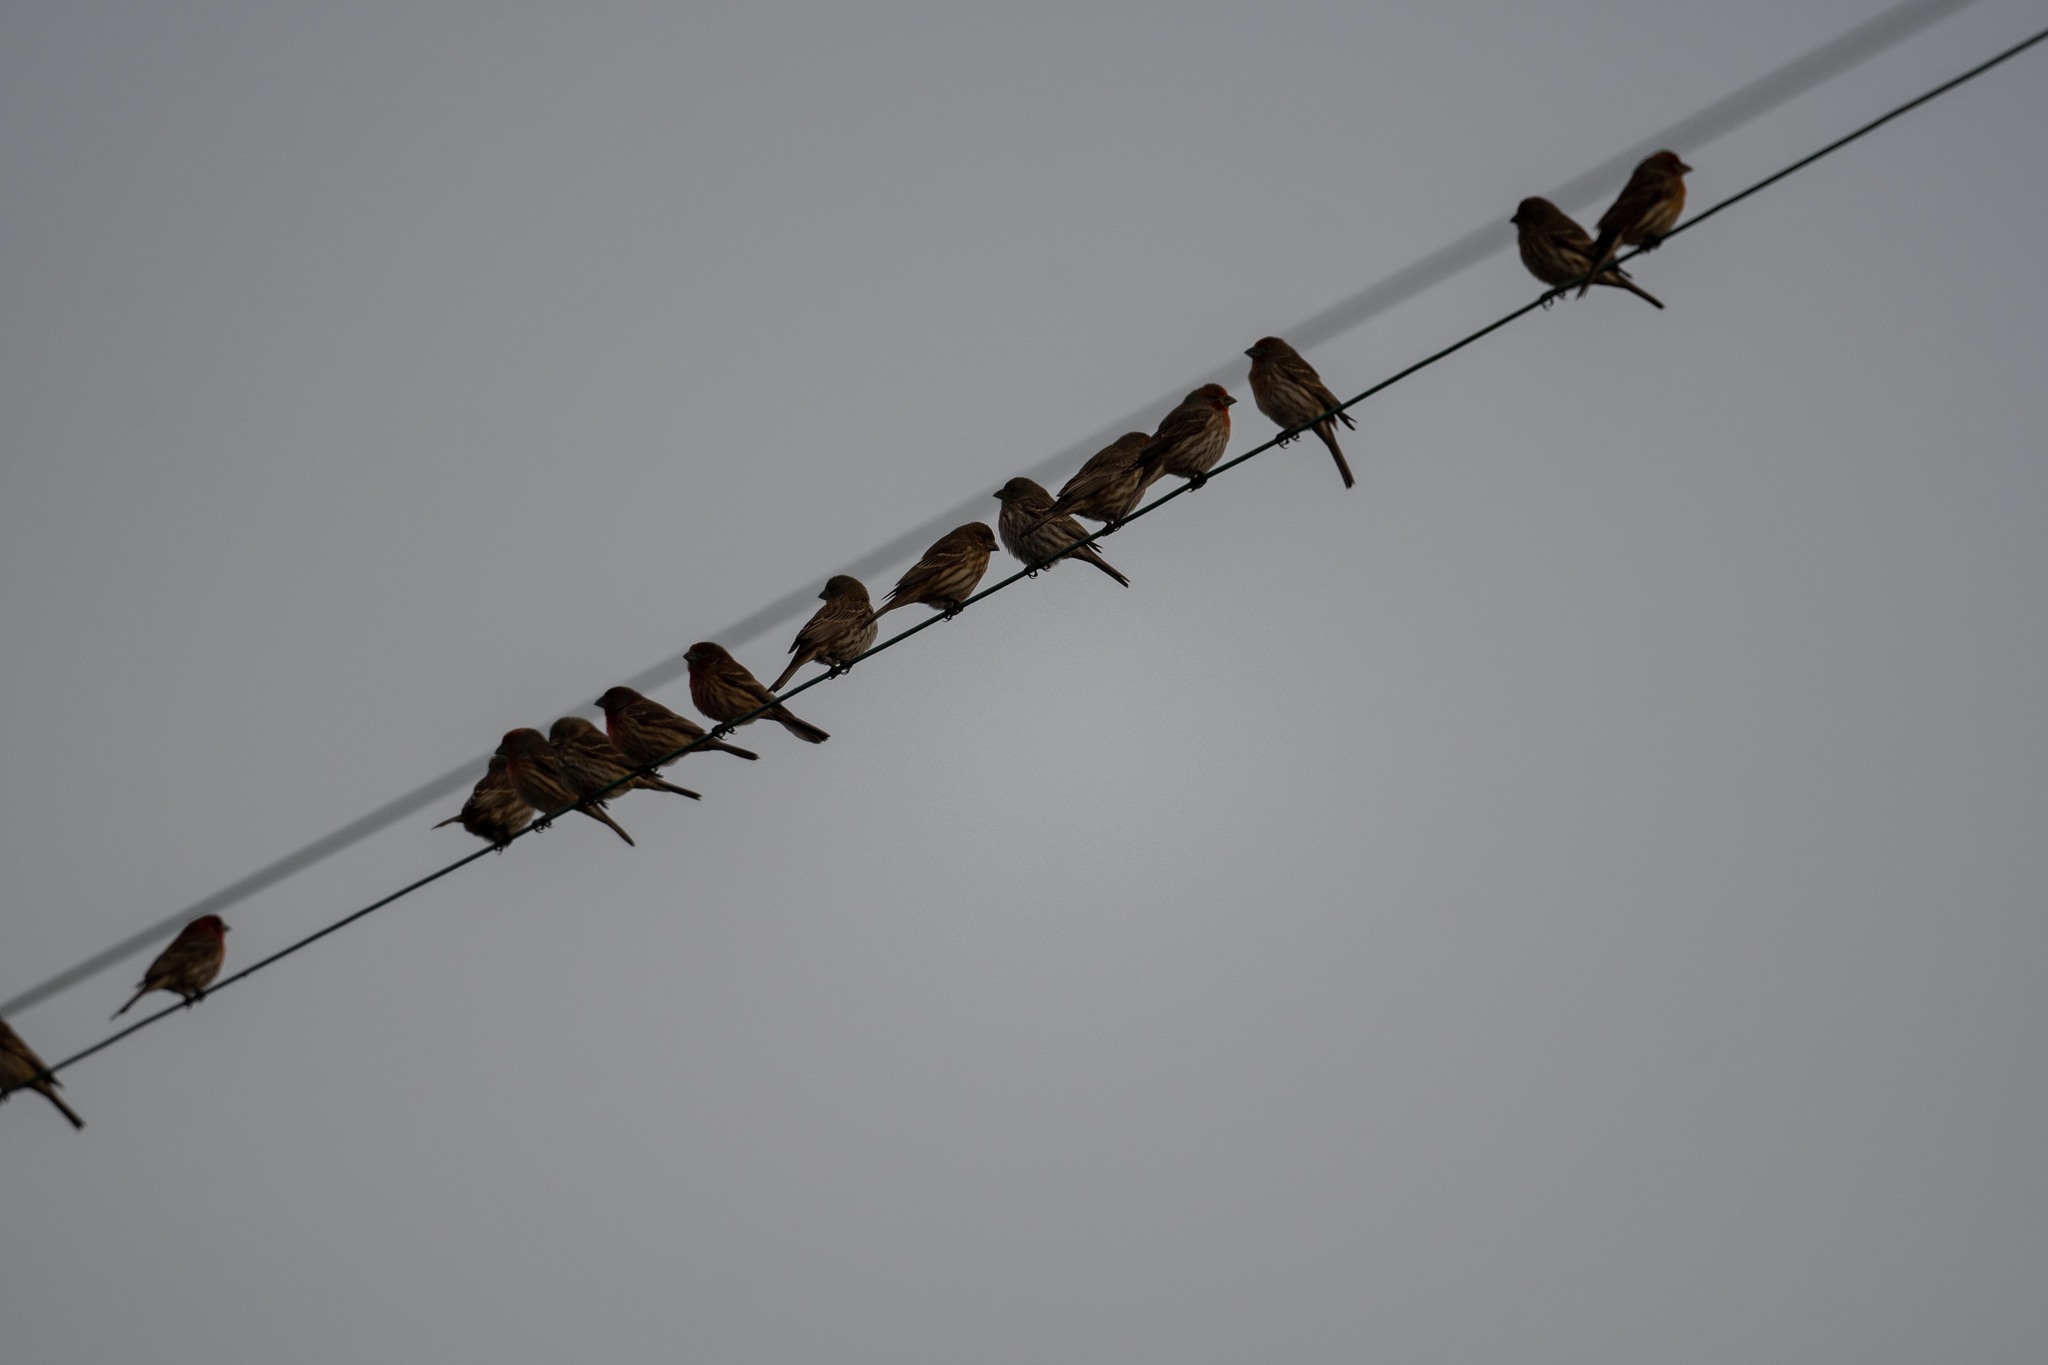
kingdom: Animalia
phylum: Chordata
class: Aves
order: Passeriformes
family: Fringillidae
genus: Haemorhous
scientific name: Haemorhous mexicanus
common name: House finch
